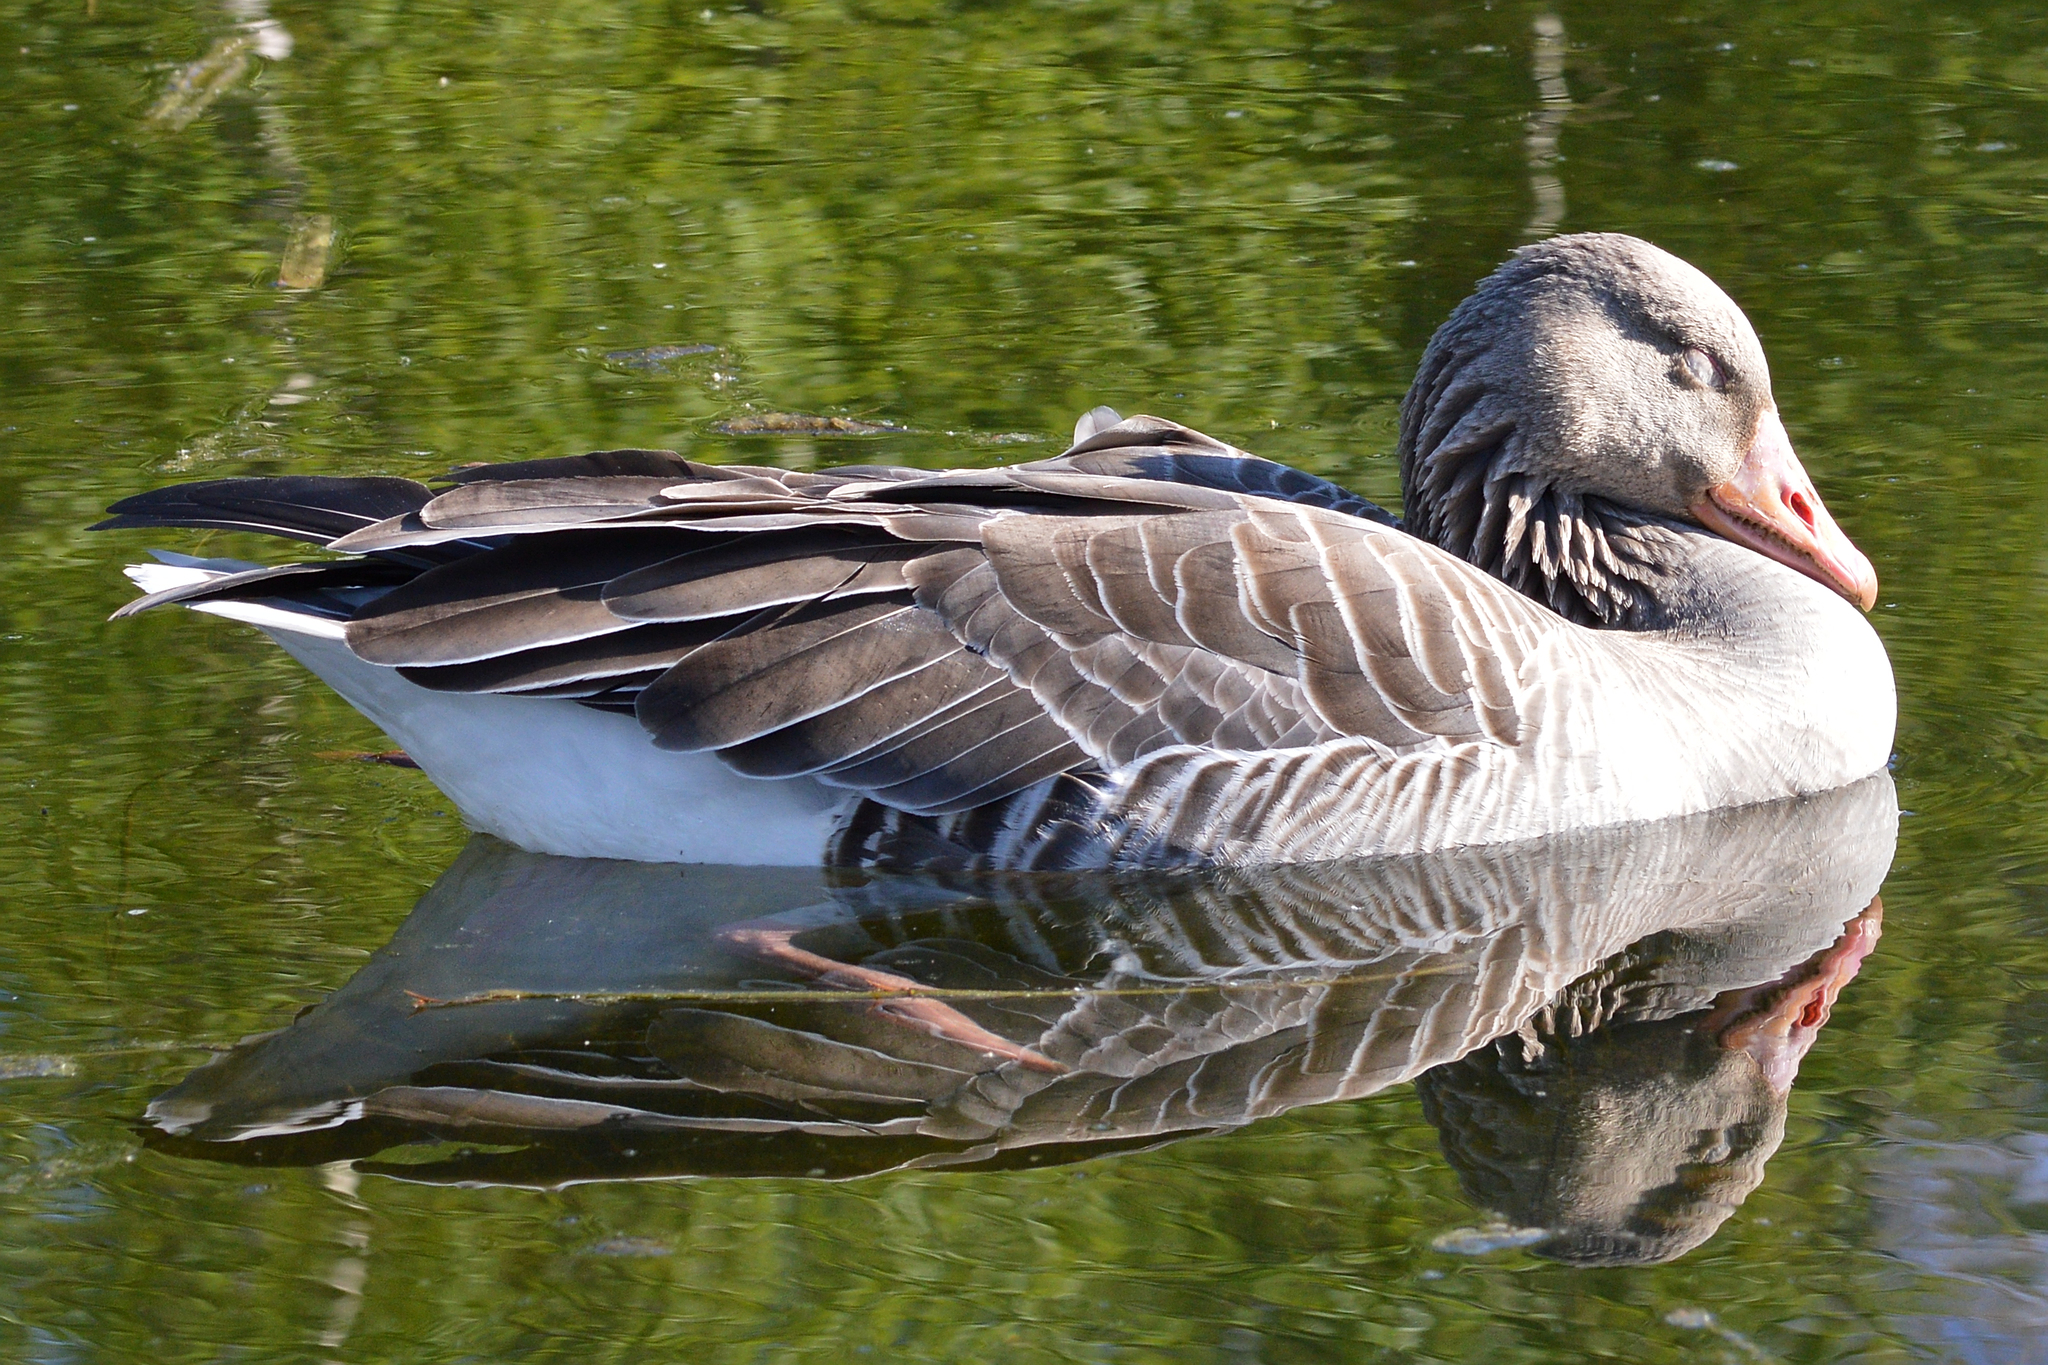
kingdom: Animalia
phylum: Chordata
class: Aves
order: Anseriformes
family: Anatidae
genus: Anser
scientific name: Anser anser
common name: Greylag goose
